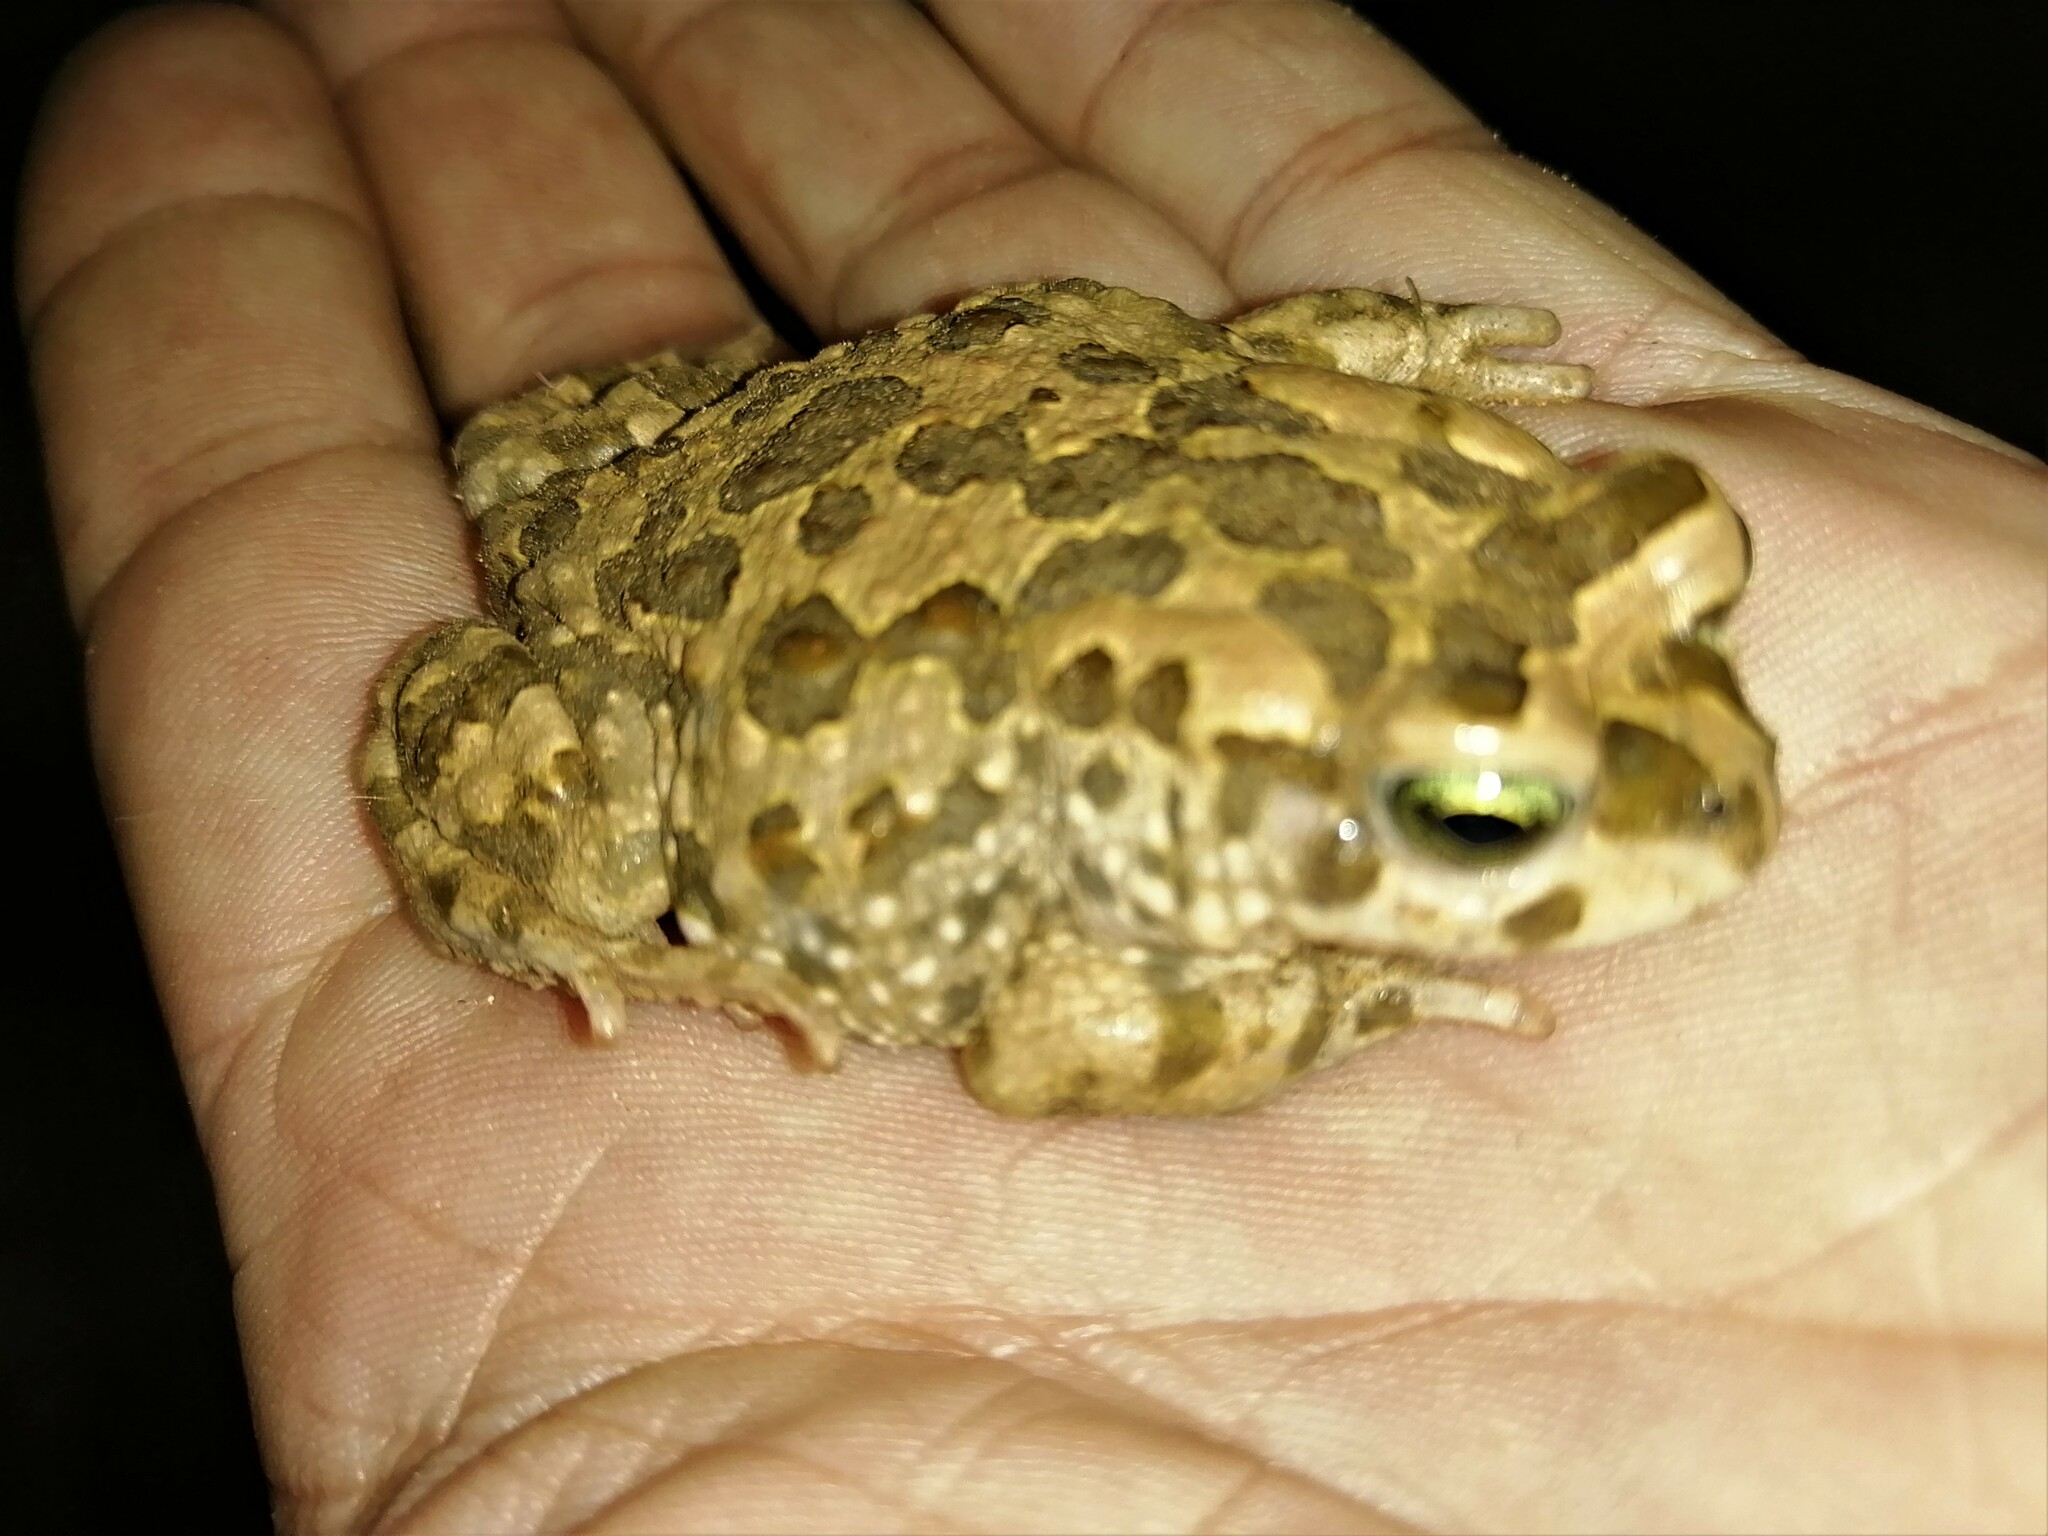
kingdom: Animalia
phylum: Chordata
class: Amphibia
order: Anura
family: Bufonidae
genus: Vandijkophrynus
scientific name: Vandijkophrynus gariepensis
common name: Gariep toad
